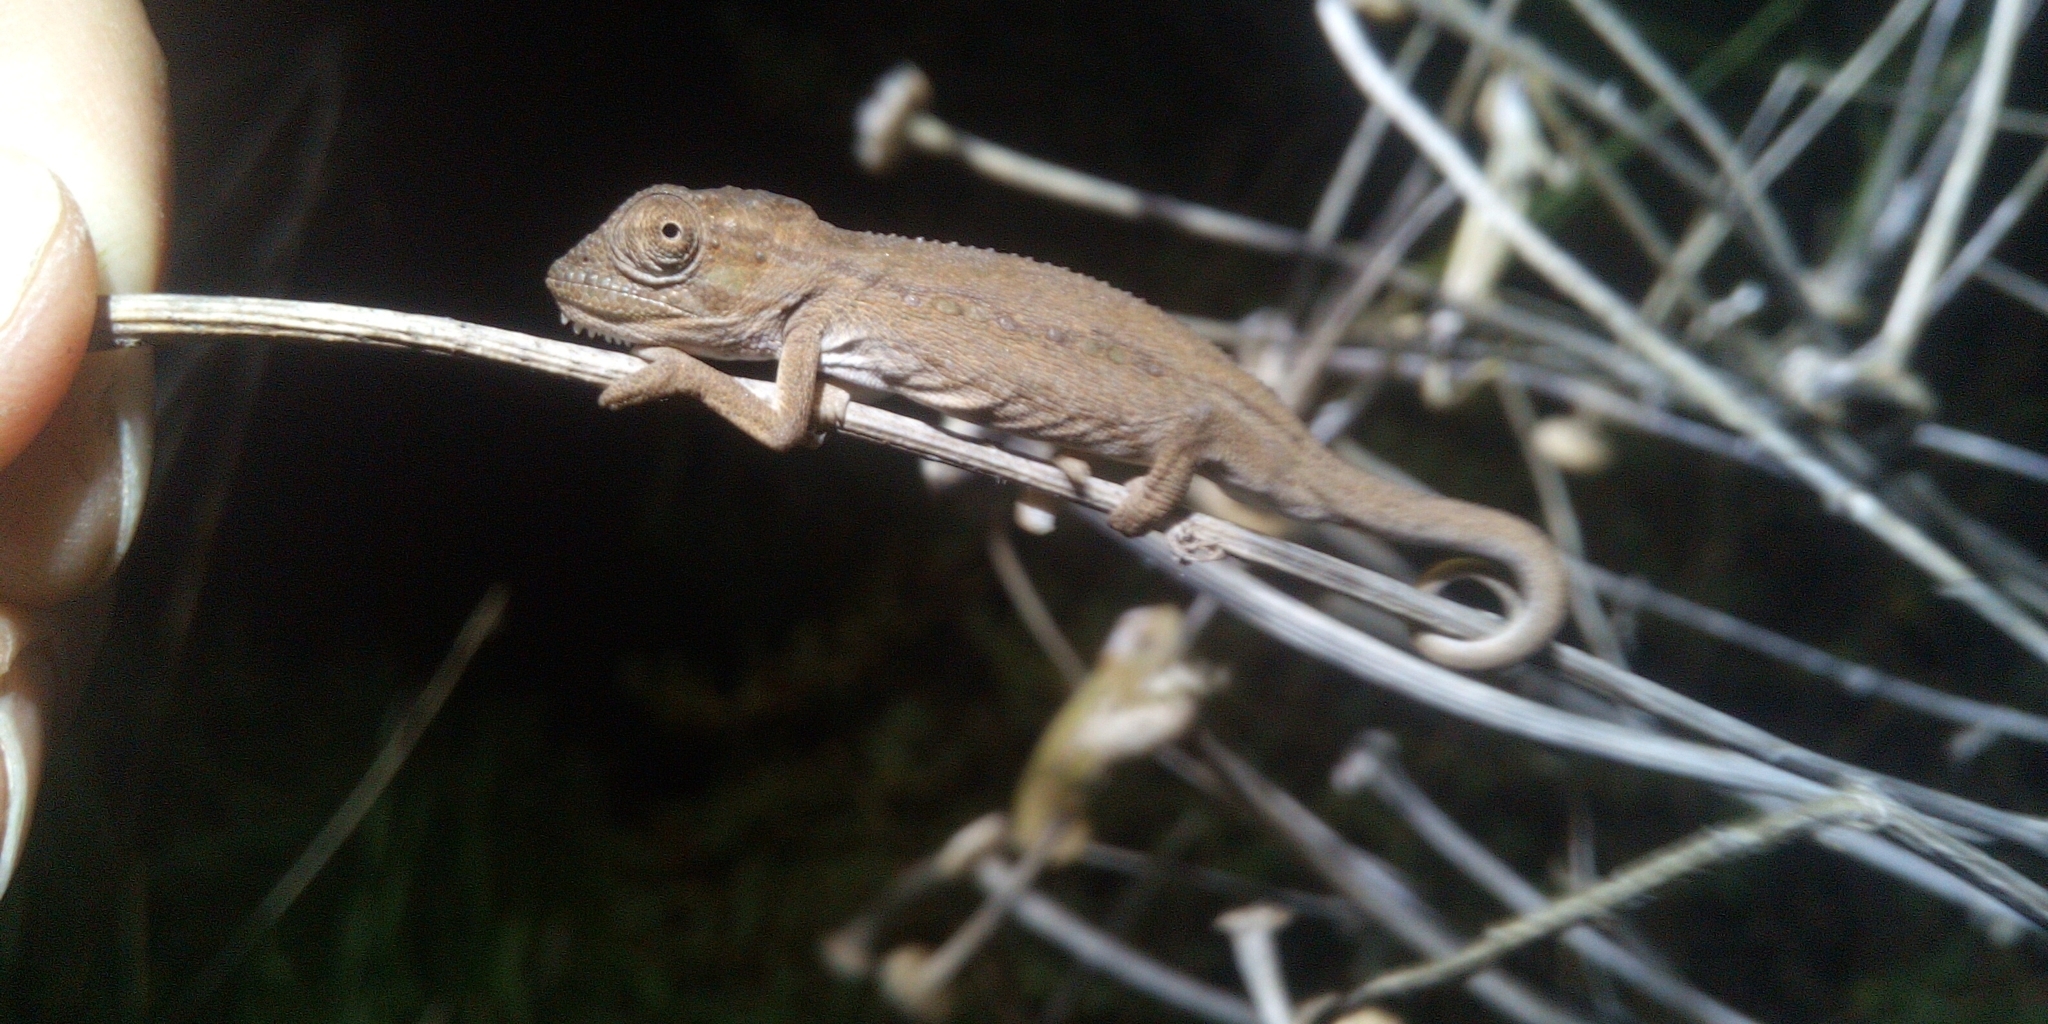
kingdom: Animalia
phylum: Chordata
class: Squamata
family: Chamaeleonidae
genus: Bradypodion
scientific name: Bradypodion pumilum
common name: Cape dwarf chameleon
